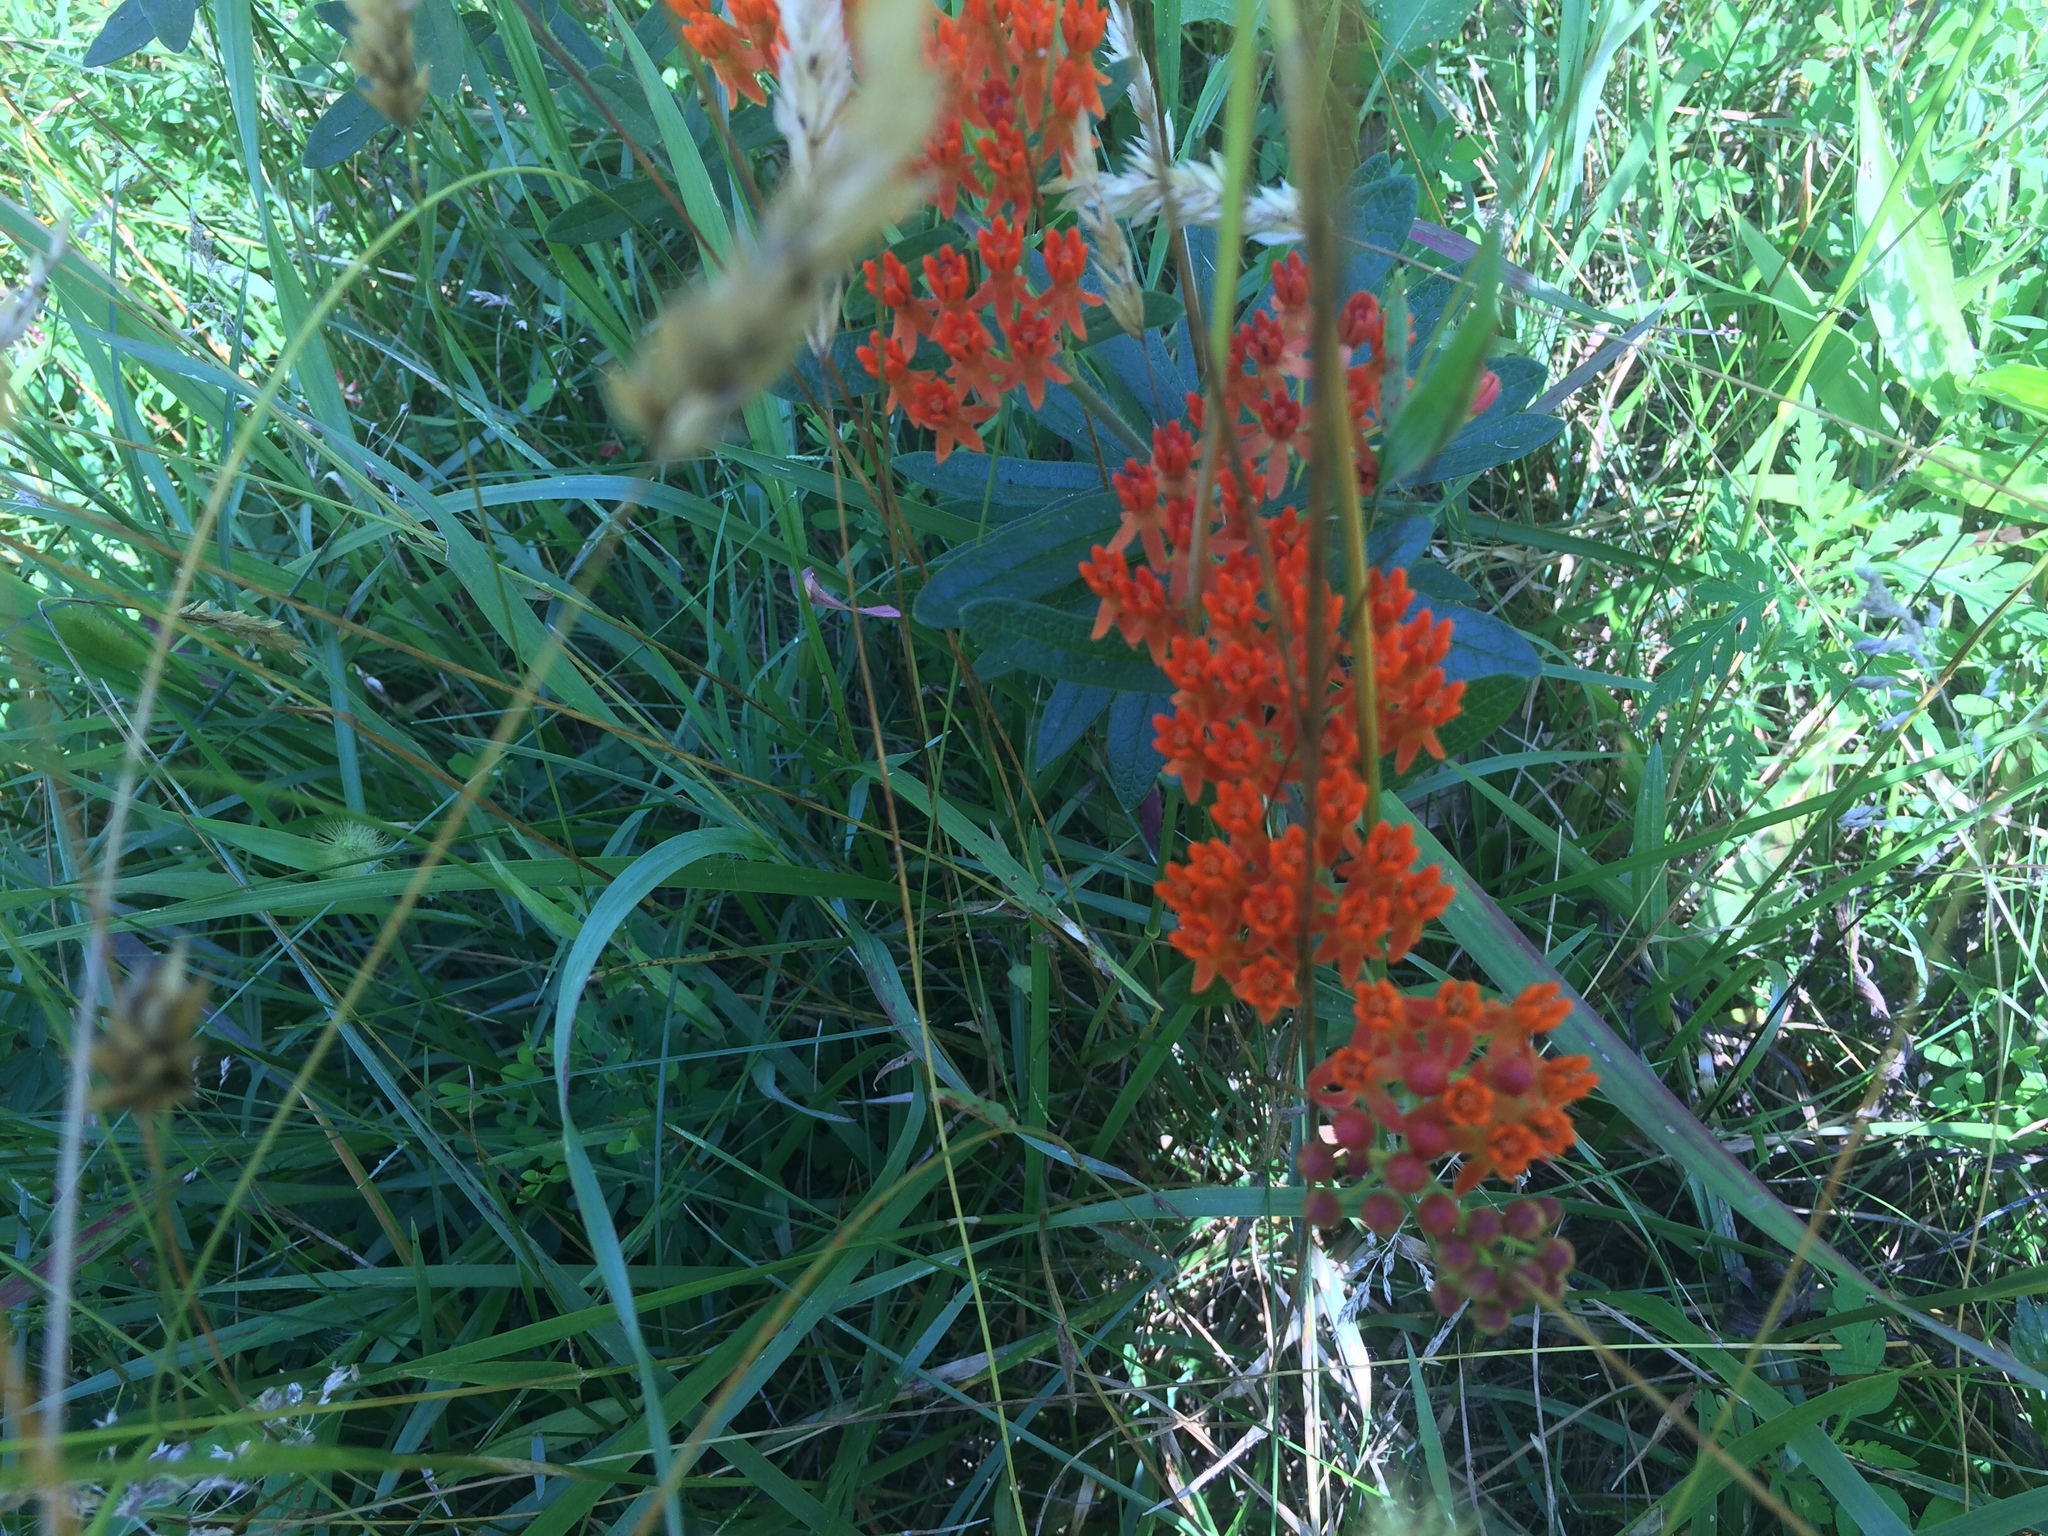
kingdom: Plantae
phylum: Tracheophyta
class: Magnoliopsida
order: Gentianales
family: Apocynaceae
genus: Asclepias
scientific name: Asclepias tuberosa
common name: Butterfly milkweed
